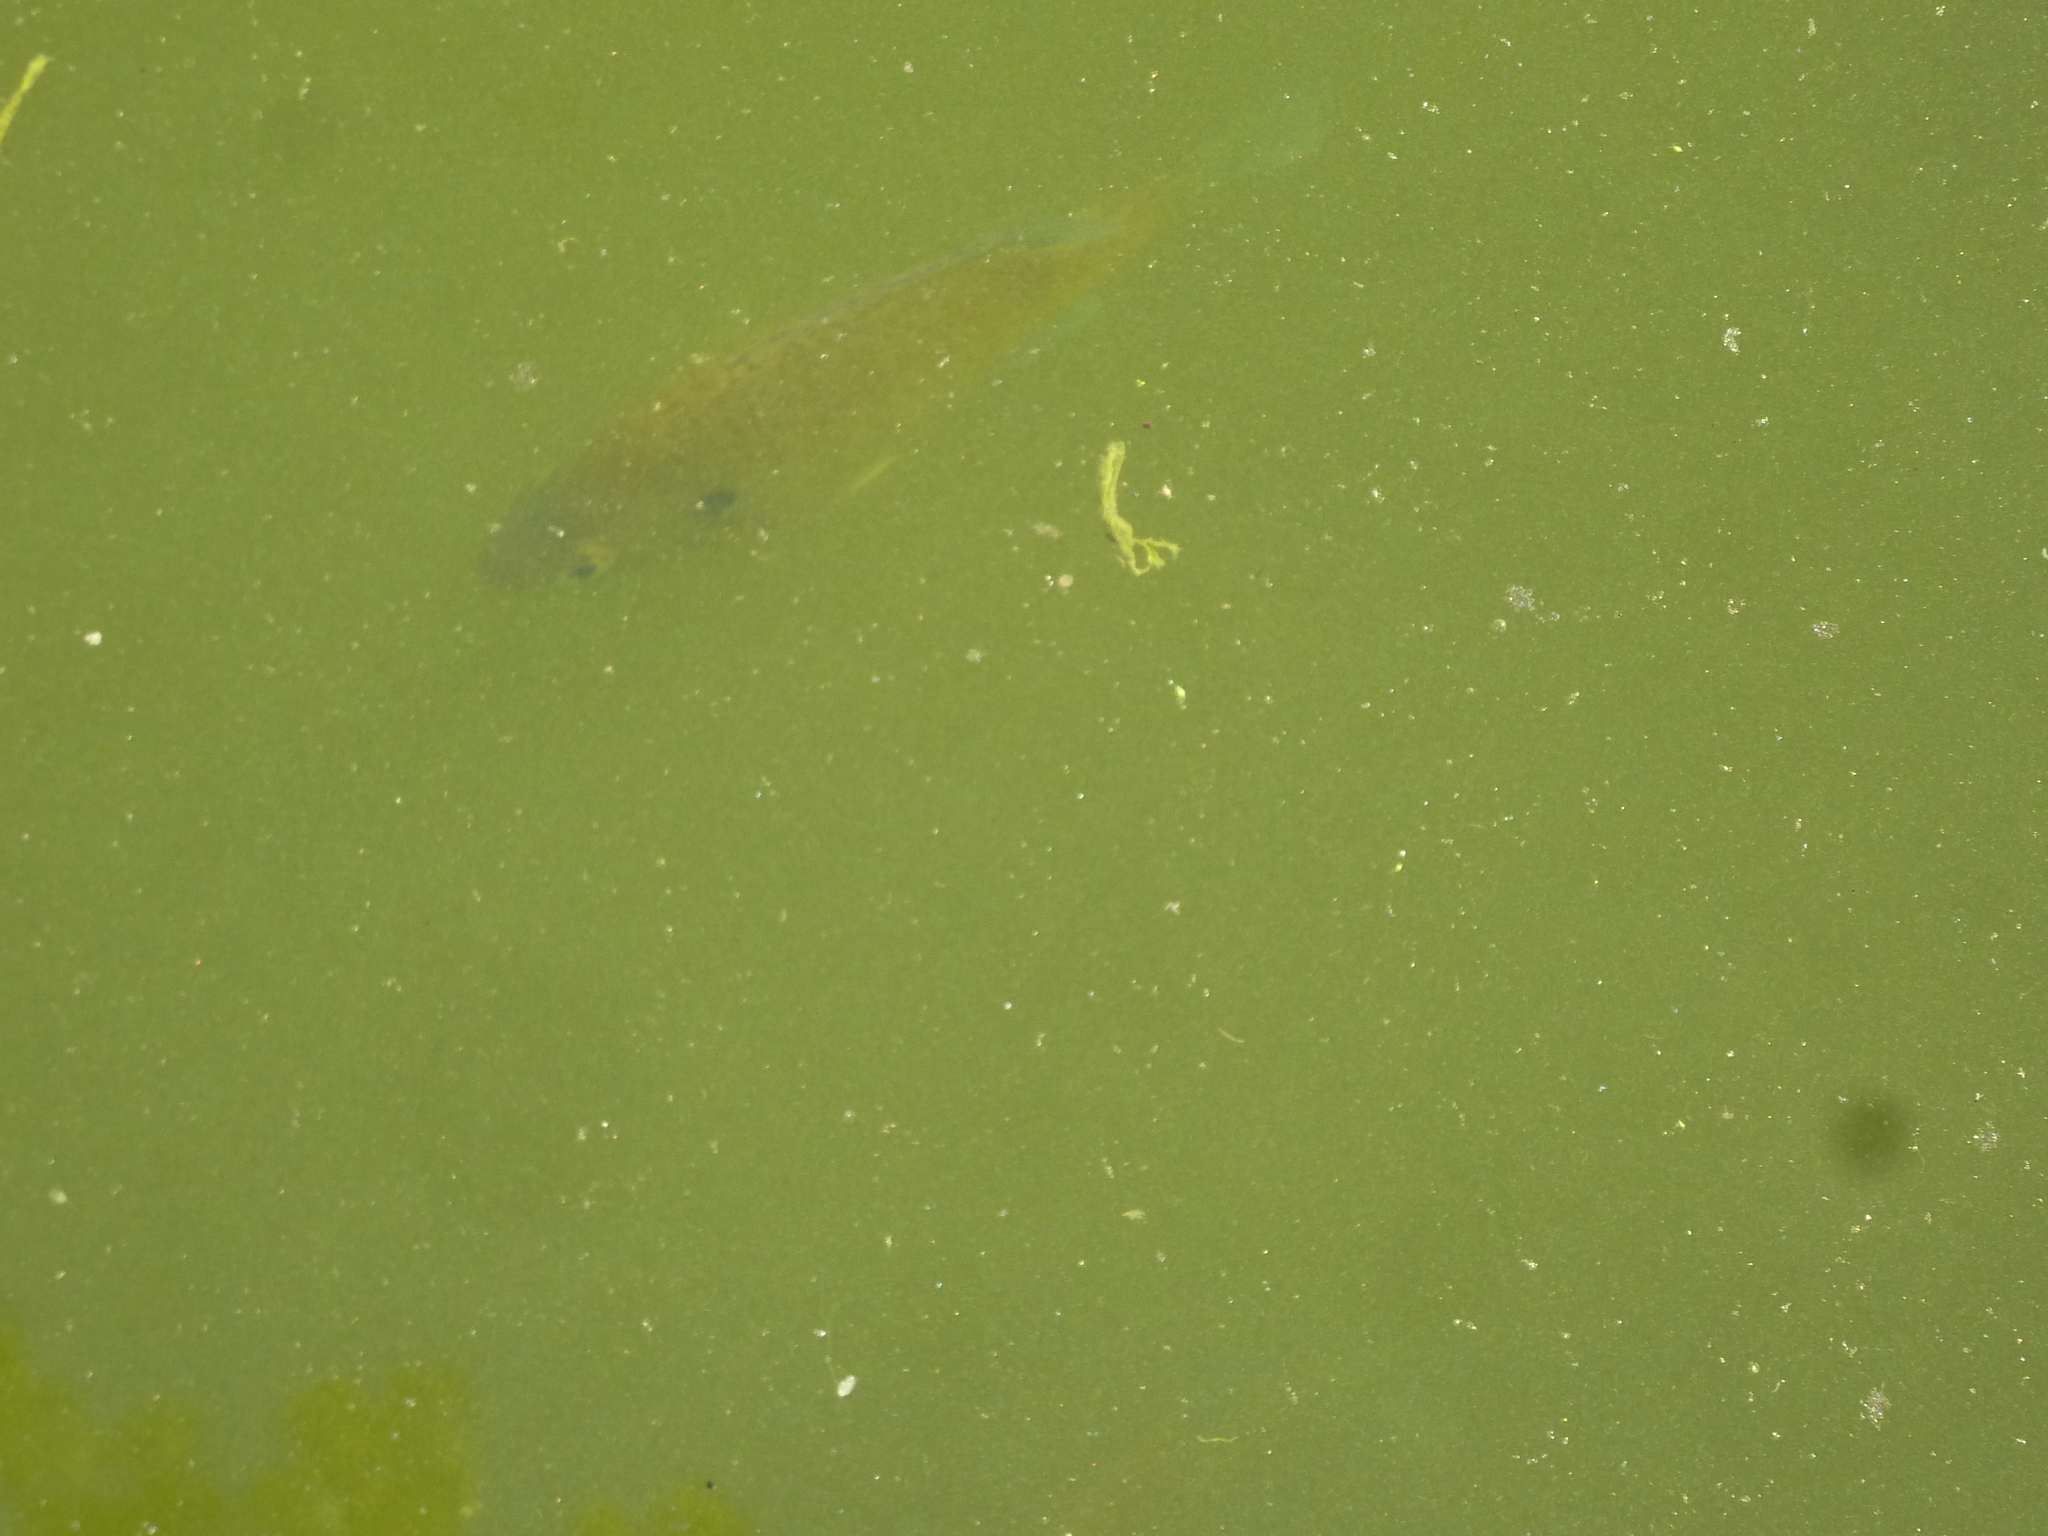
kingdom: Animalia
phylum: Chordata
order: Perciformes
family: Centrarchidae
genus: Lepomis
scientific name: Lepomis
